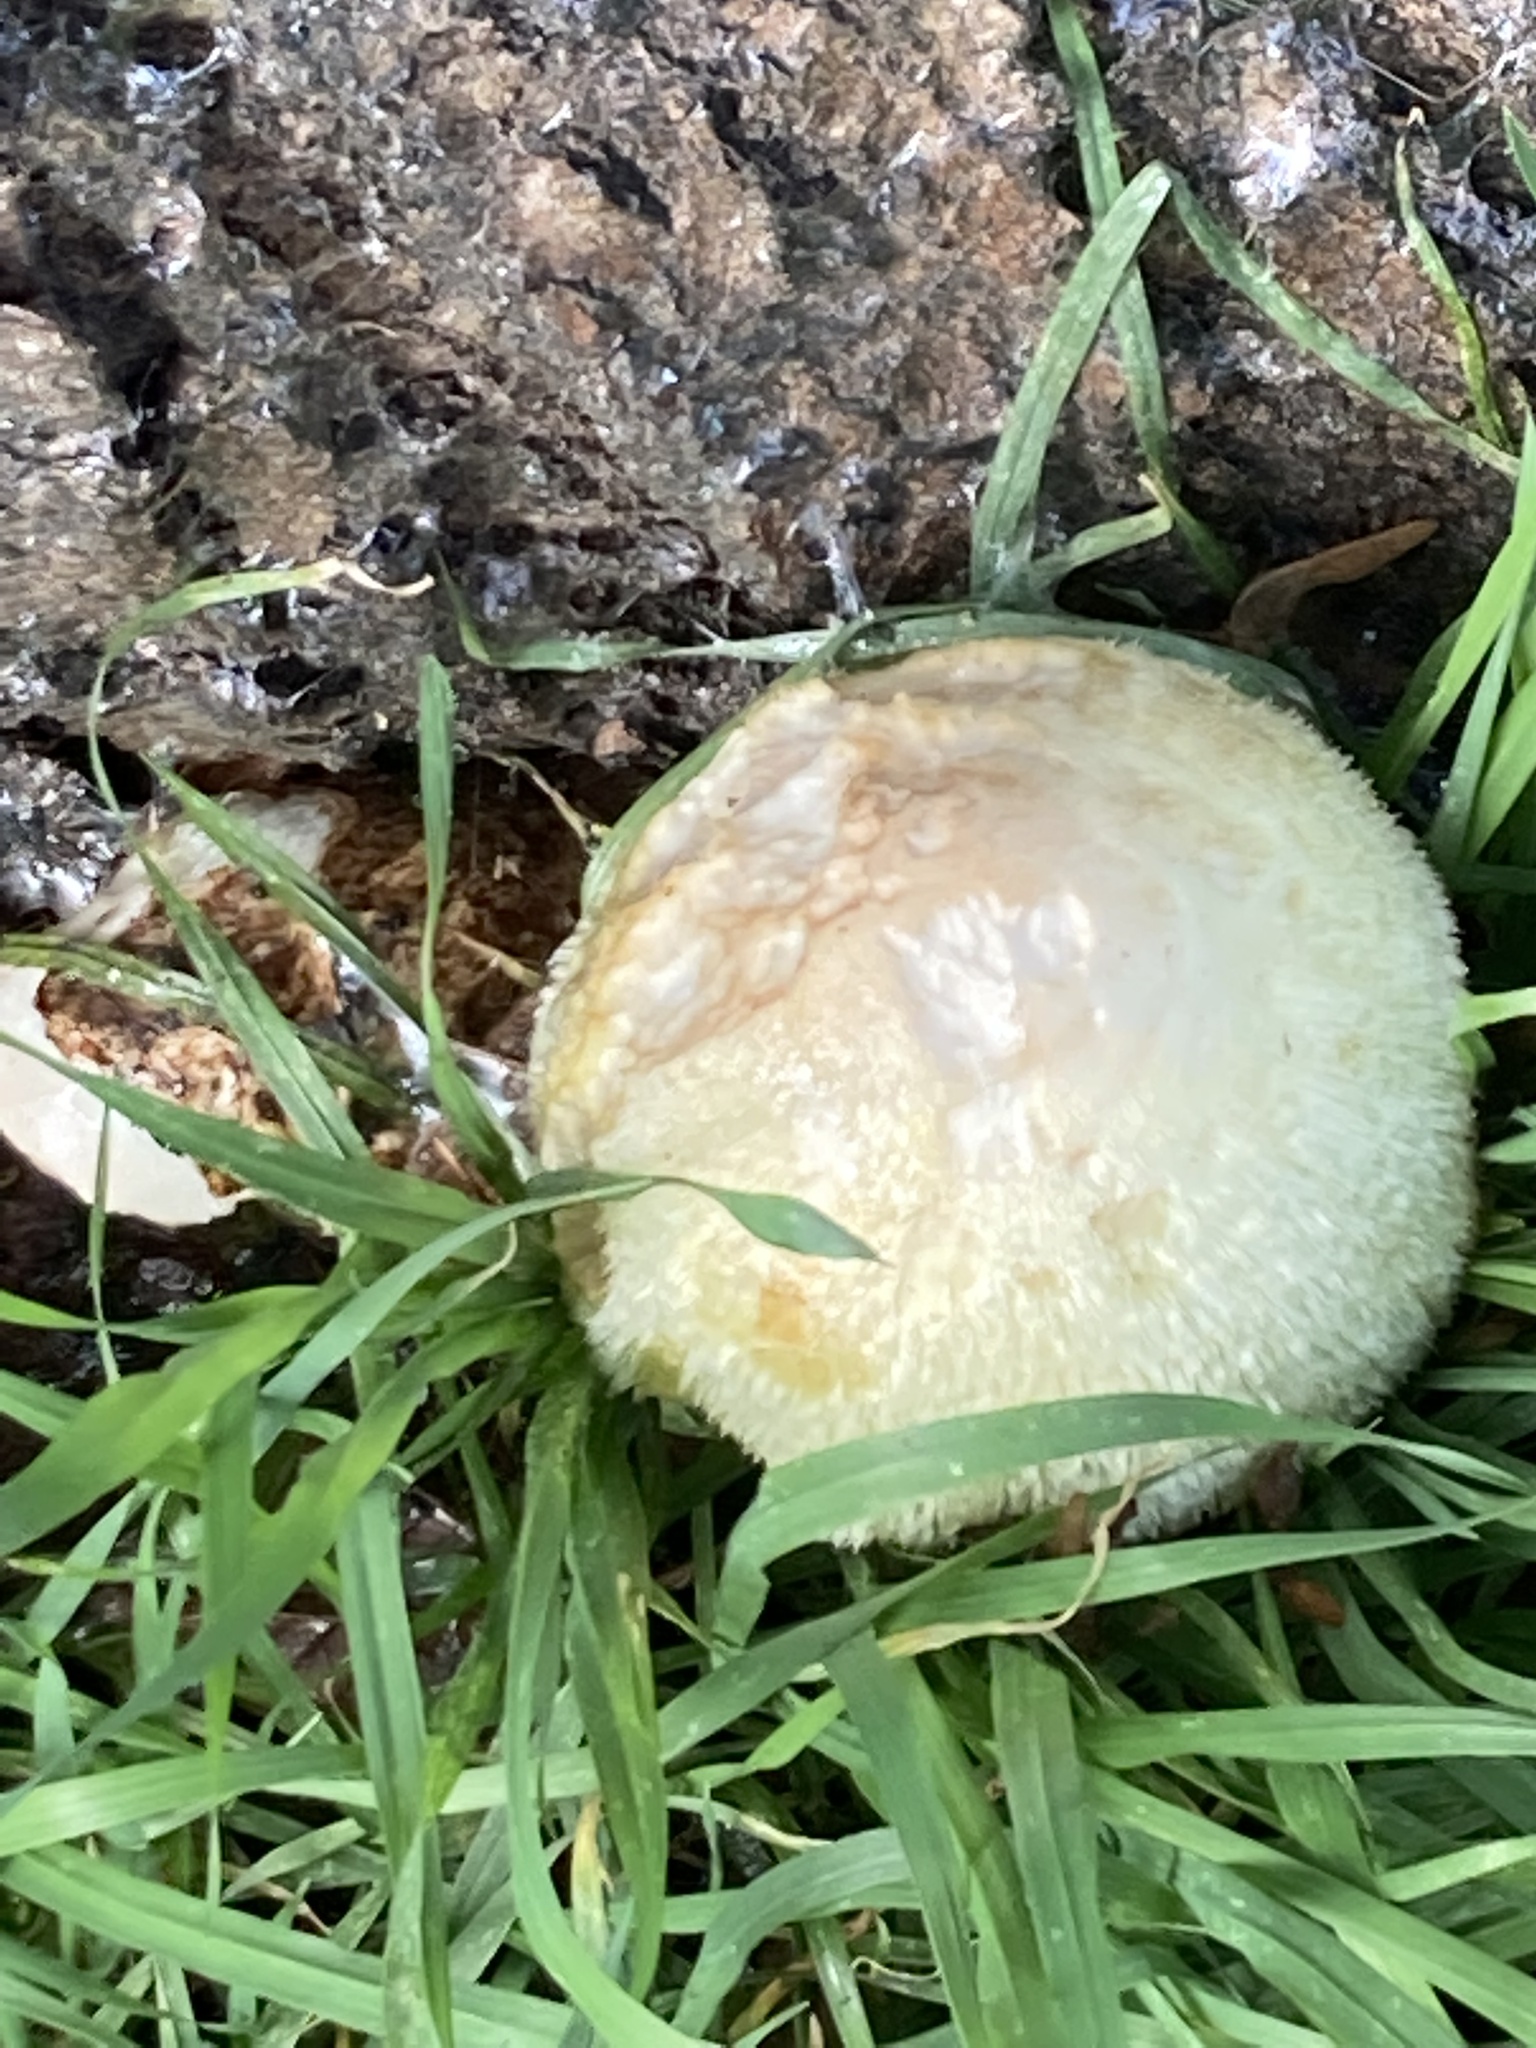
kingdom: Fungi
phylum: Basidiomycota
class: Agaricomycetes
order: Agaricales
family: Pluteaceae
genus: Volvariella
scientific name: Volvariella bombycina
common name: Silky rosegill
